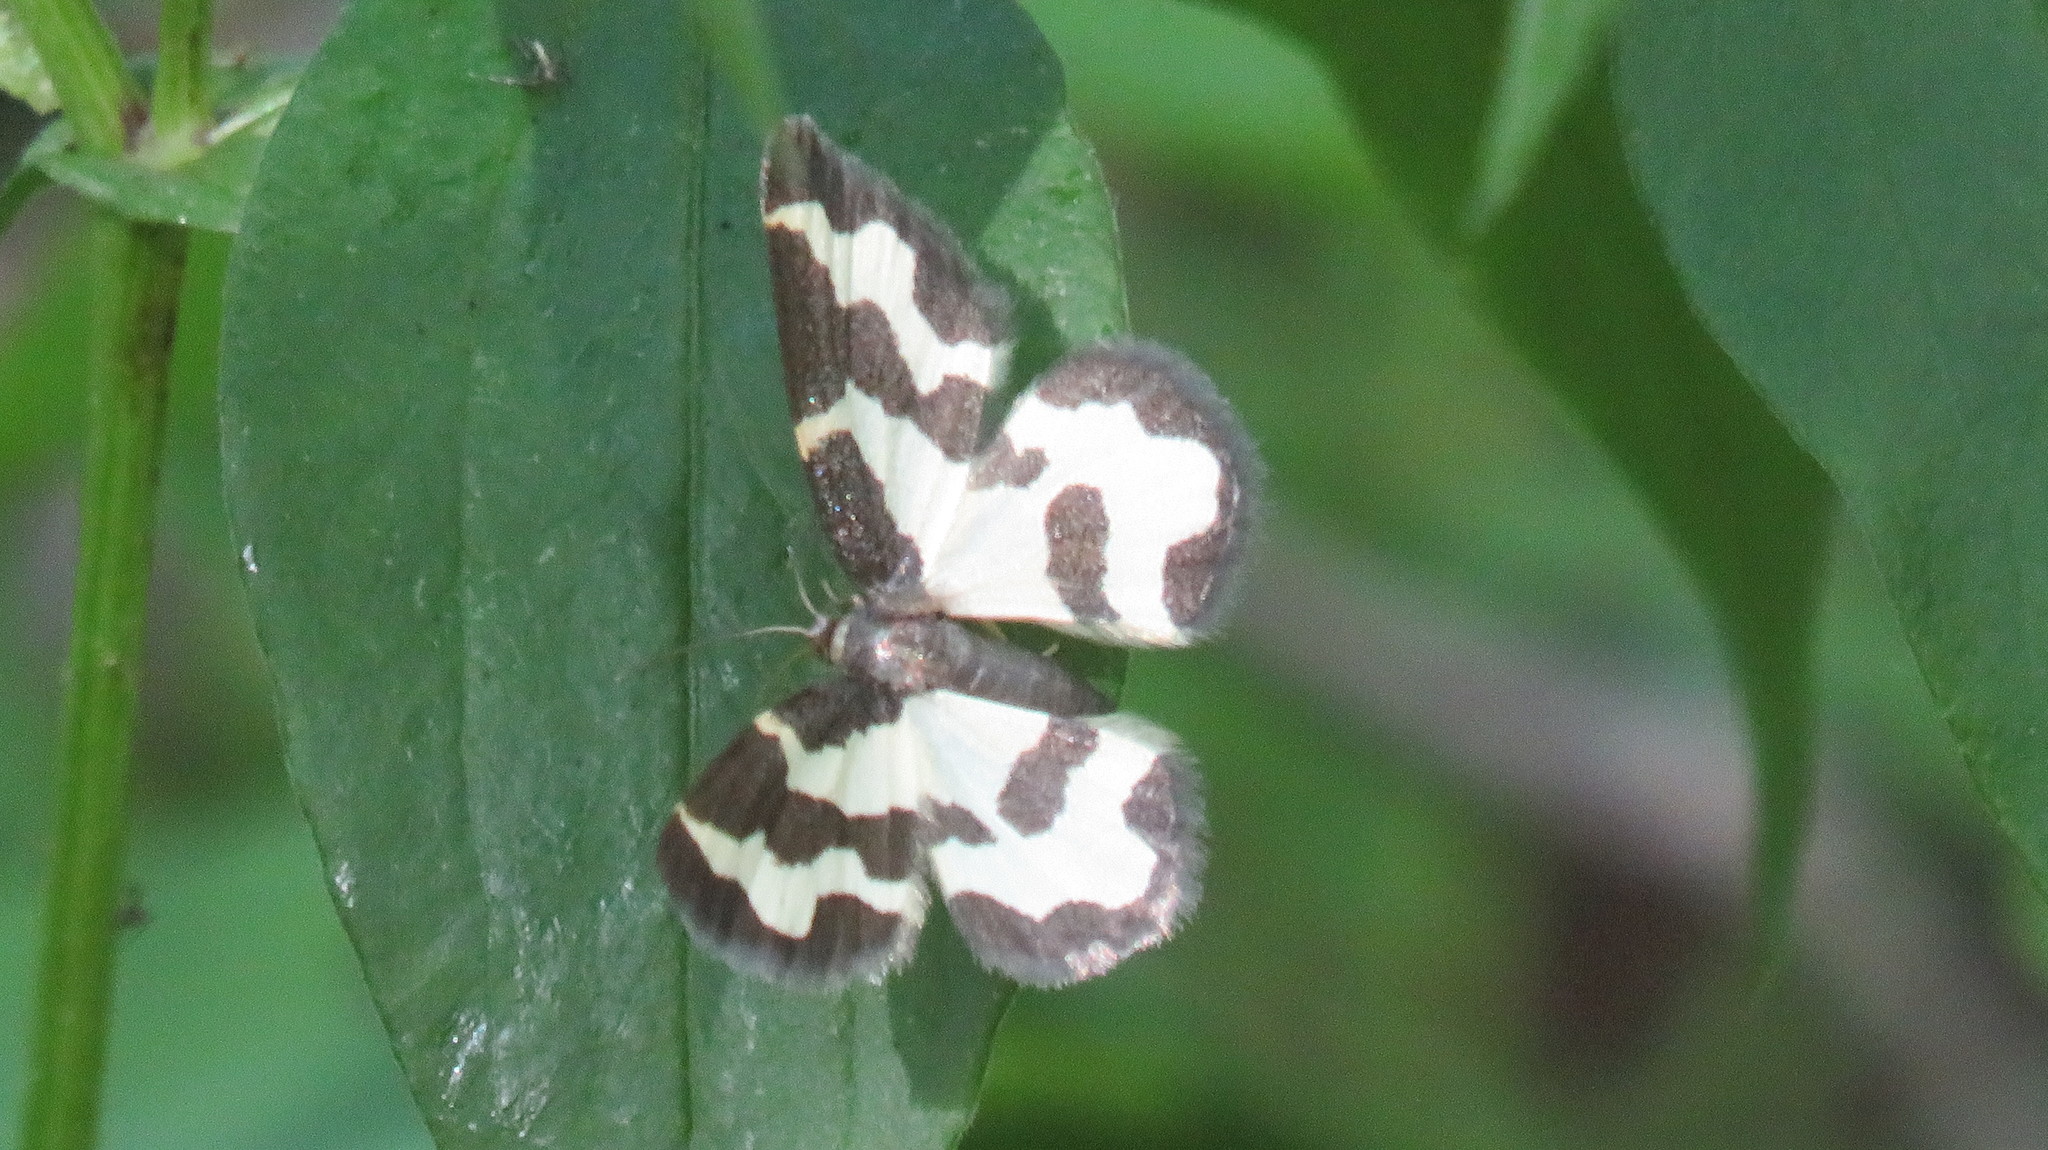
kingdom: Animalia
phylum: Arthropoda
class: Insecta
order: Lepidoptera
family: Geometridae
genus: Lomaspilis
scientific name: Lomaspilis marginata
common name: Clouded border
